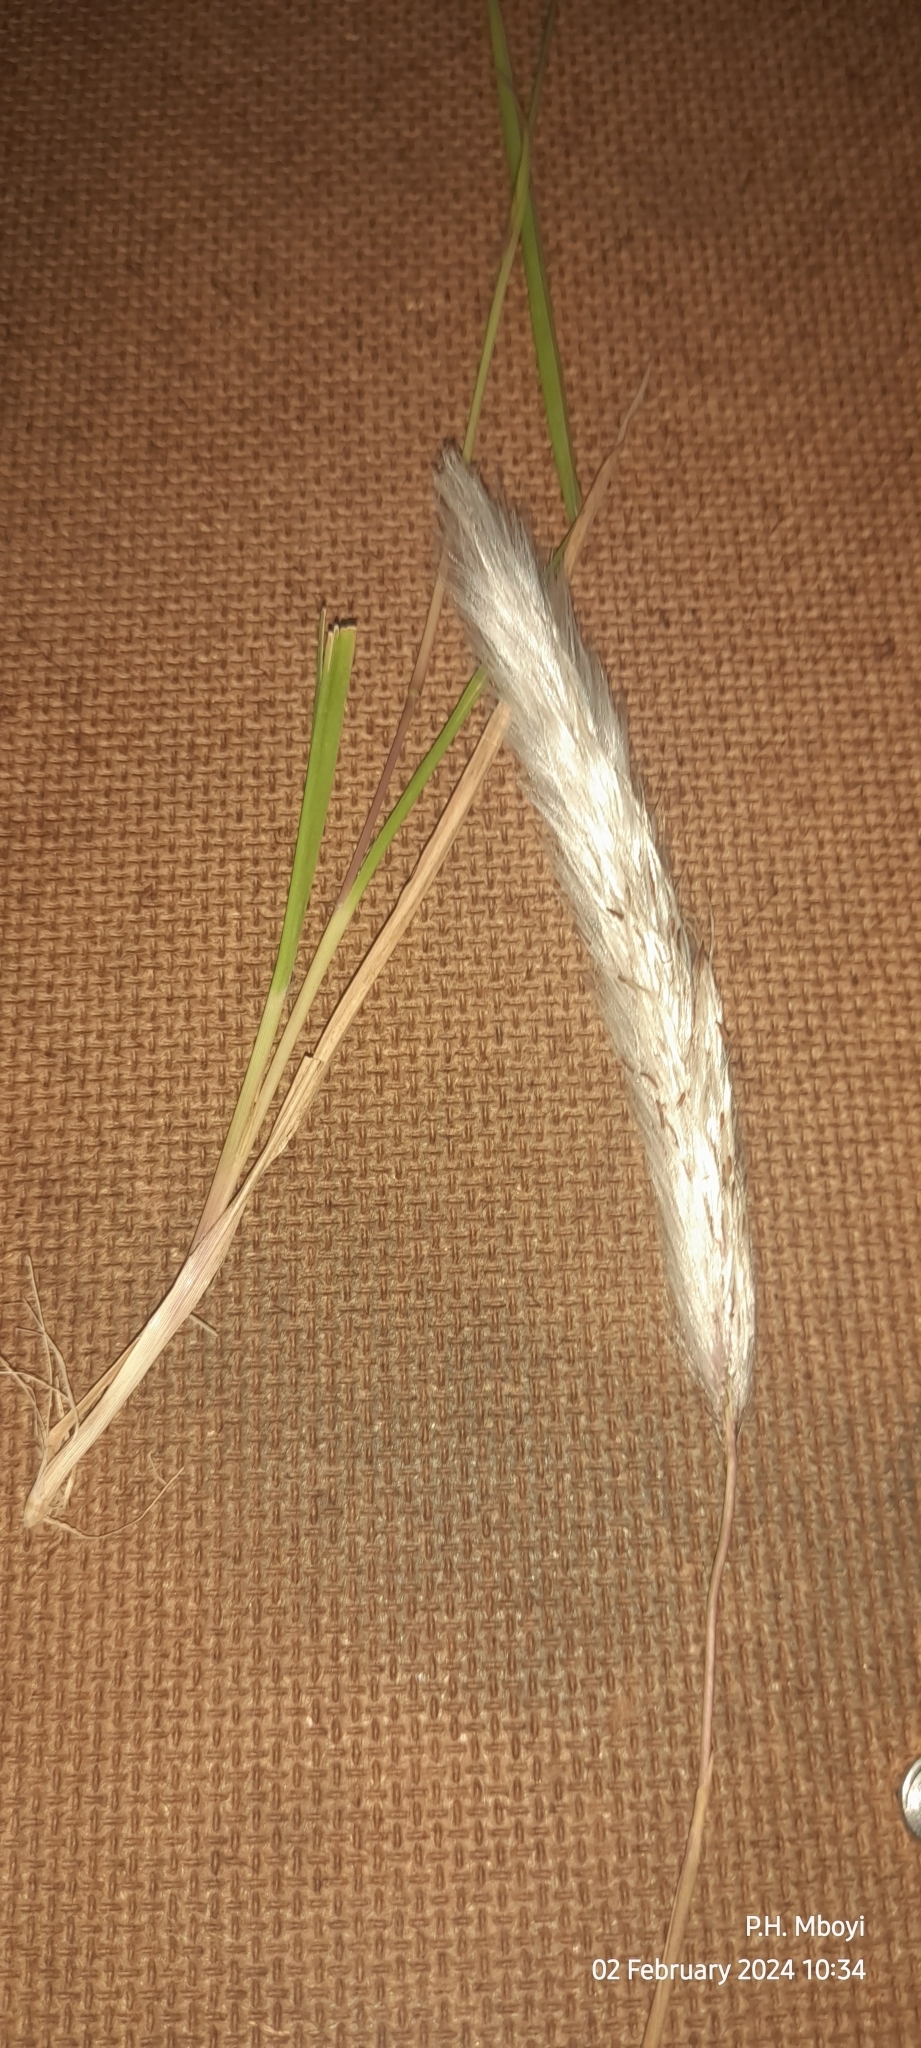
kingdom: Plantae
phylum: Tracheophyta
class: Liliopsida
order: Poales
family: Poaceae
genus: Imperata
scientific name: Imperata cylindrica
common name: Cogongrass
